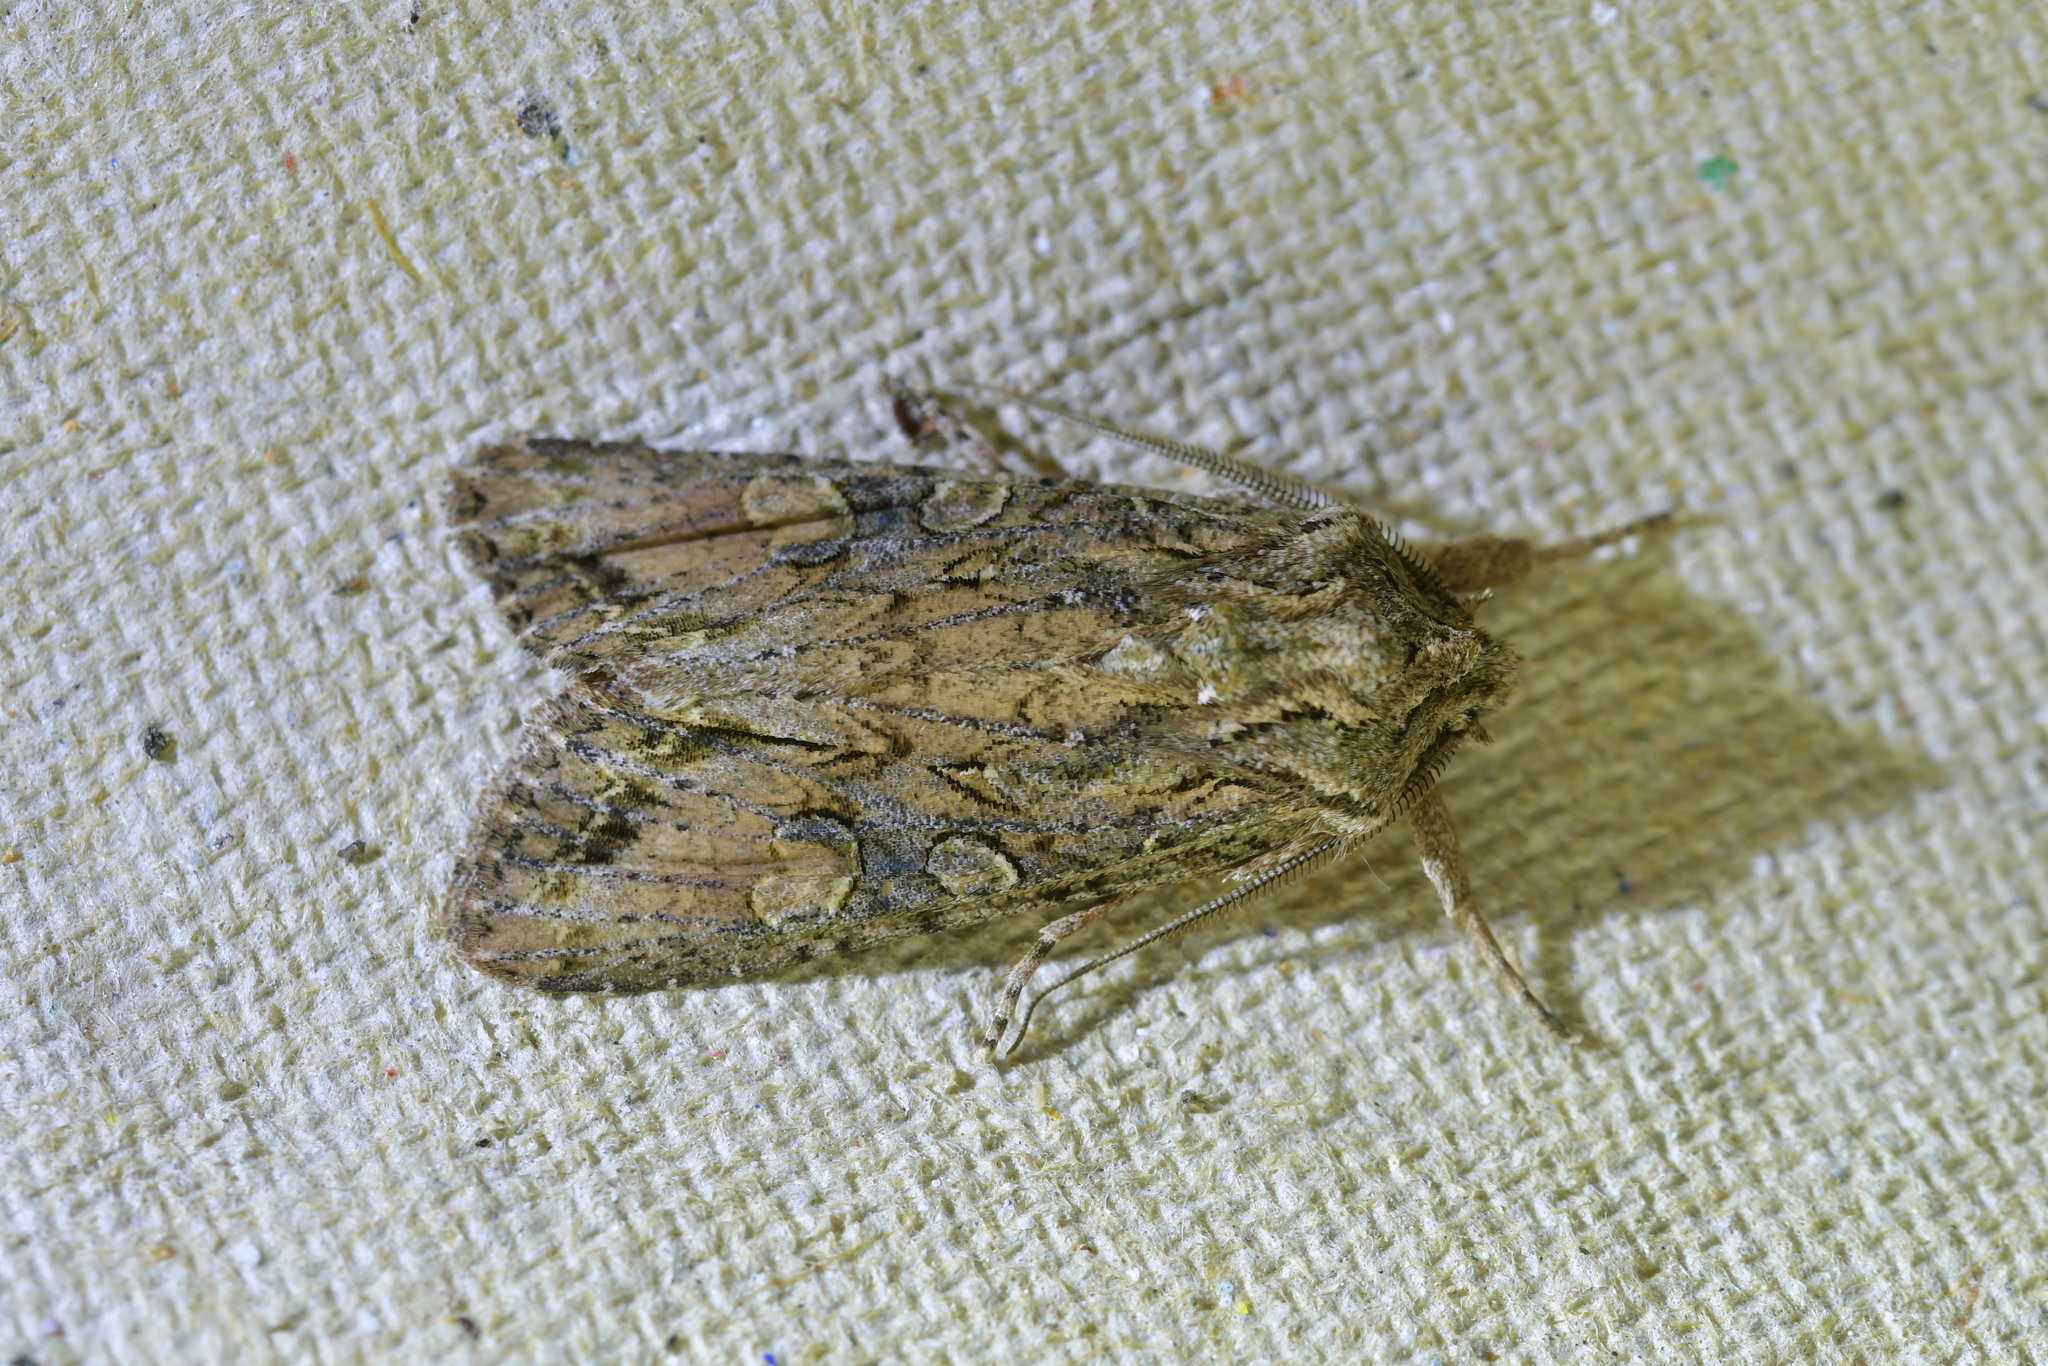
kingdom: Animalia
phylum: Arthropoda
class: Insecta
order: Lepidoptera
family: Noctuidae
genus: Ichneutica
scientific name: Ichneutica mutans
